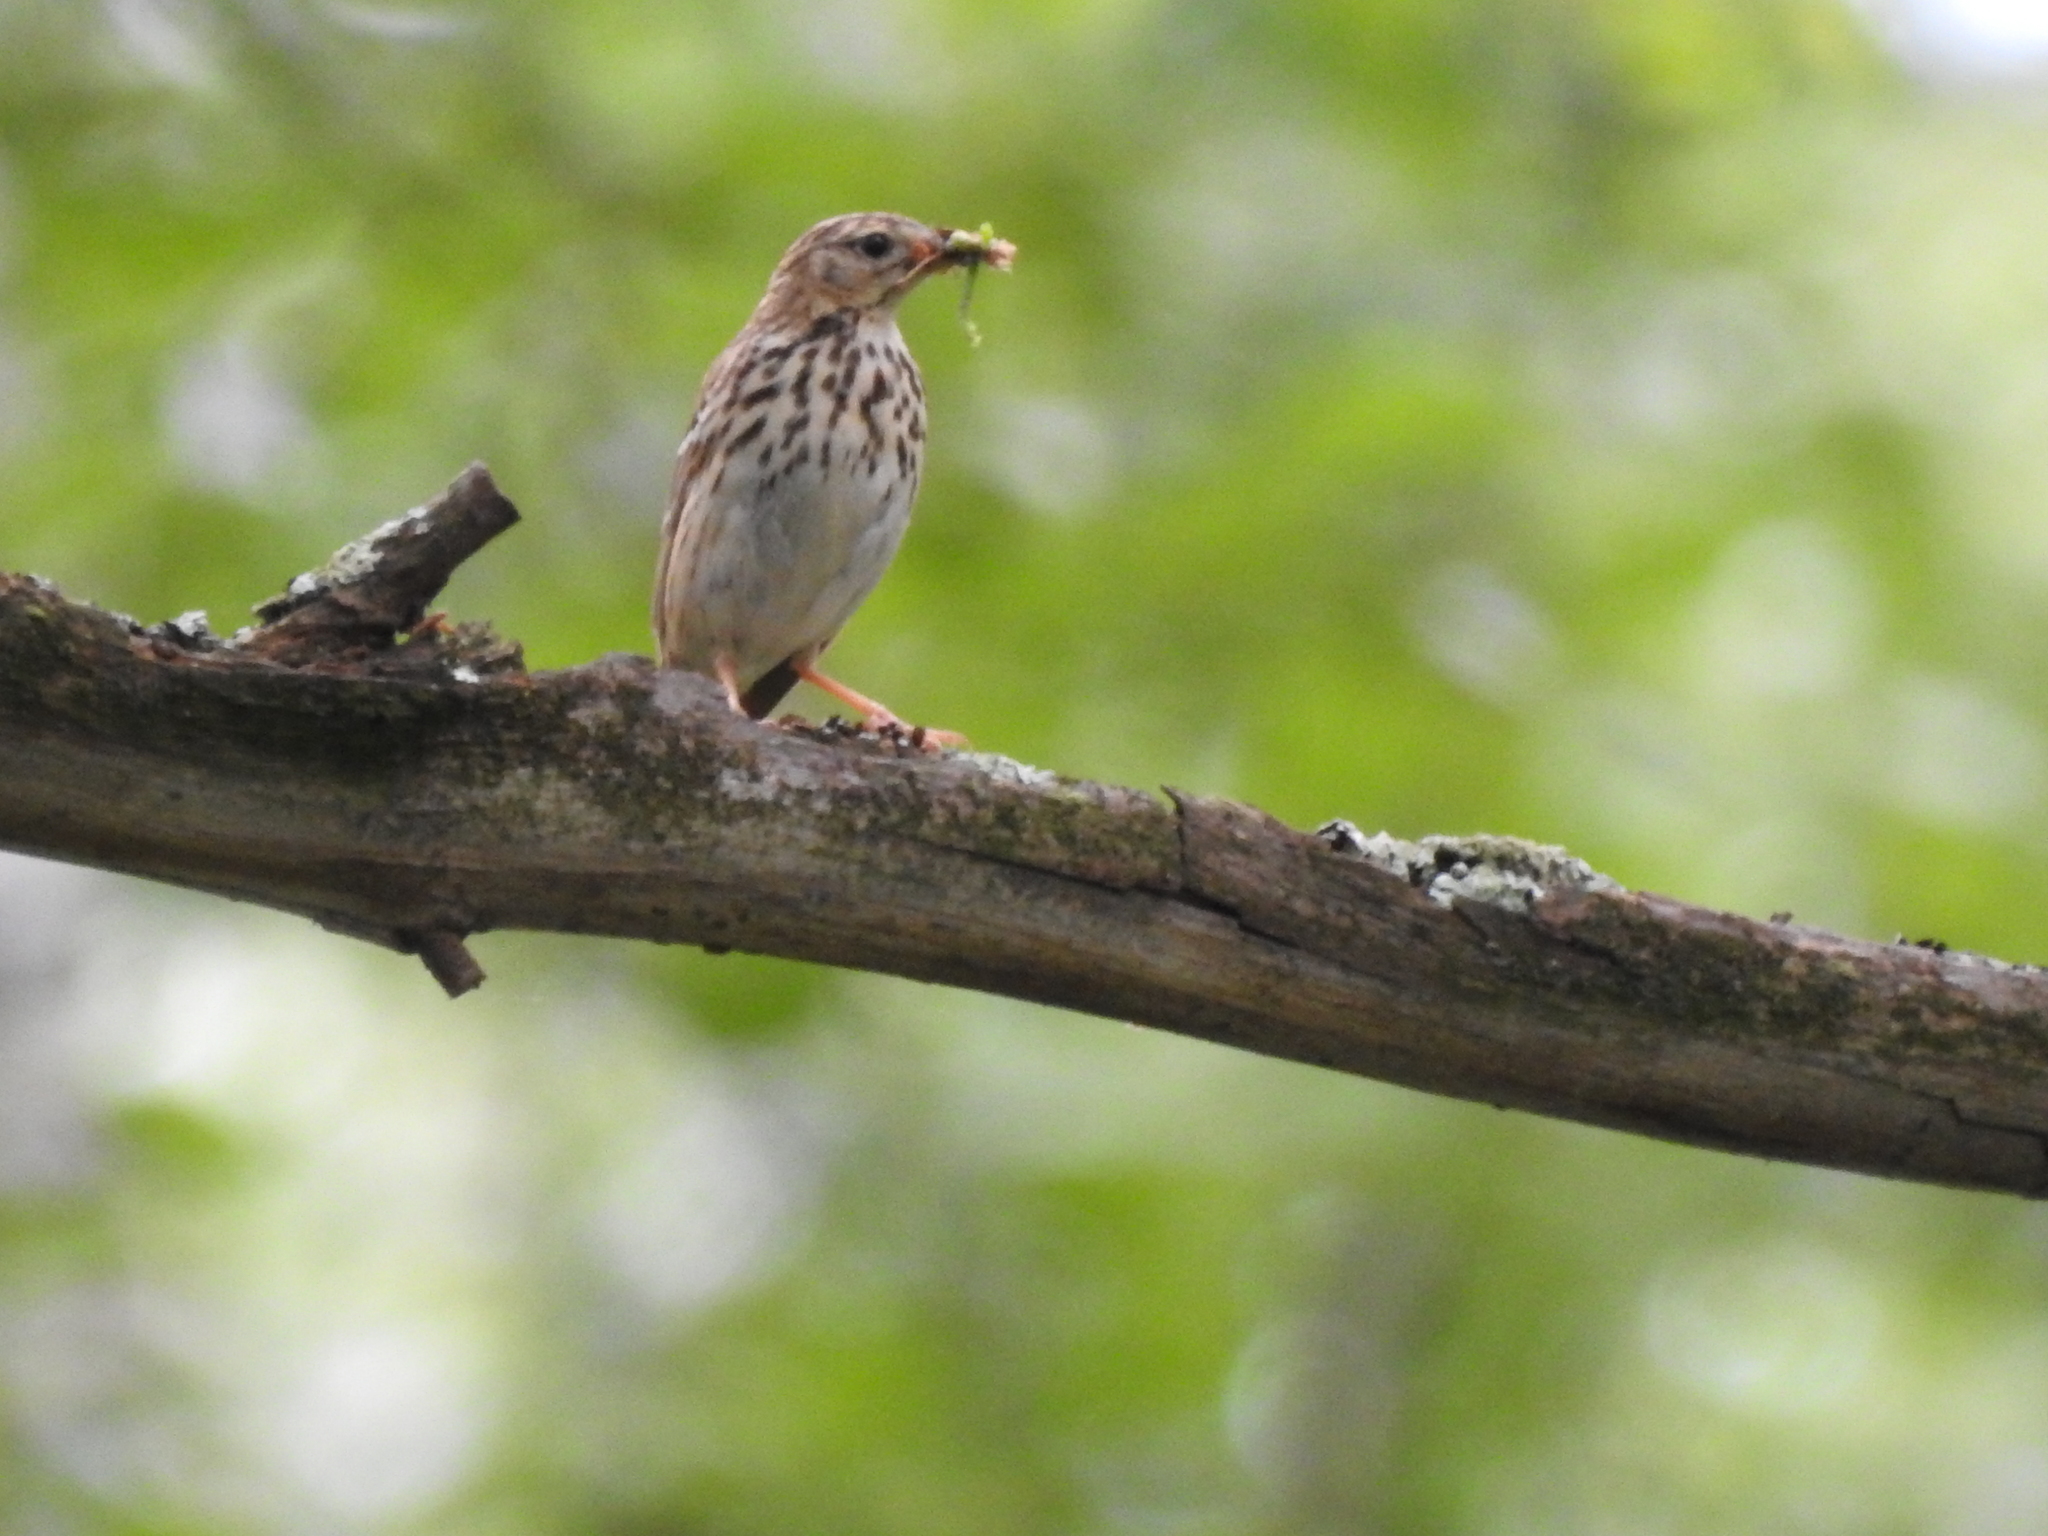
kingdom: Animalia
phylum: Chordata
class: Aves
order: Passeriformes
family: Motacillidae
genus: Anthus
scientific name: Anthus trivialis
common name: Tree pipit
